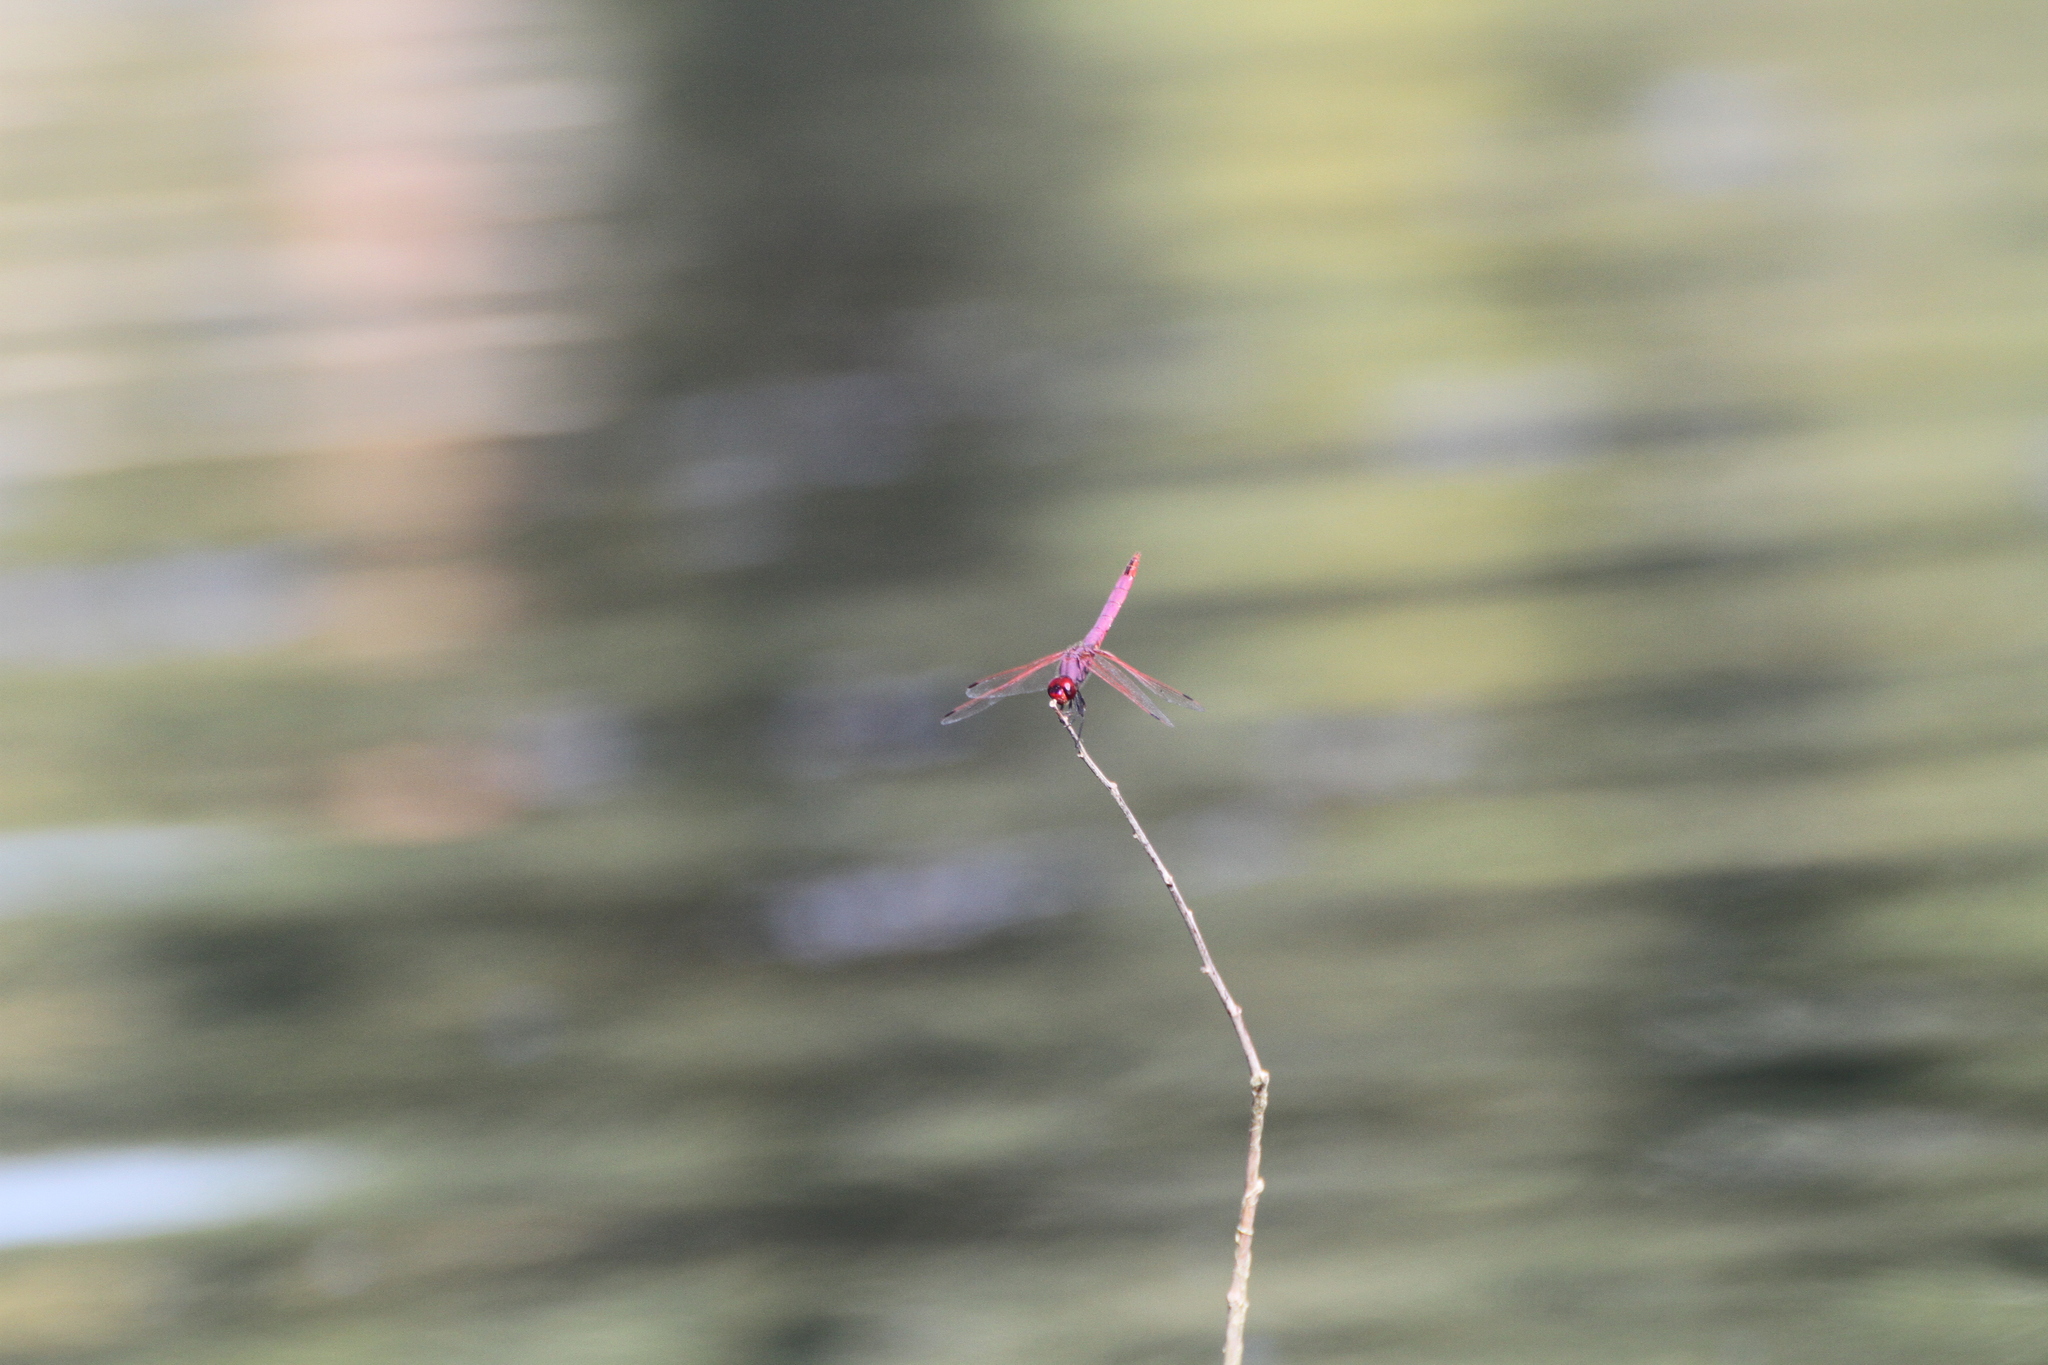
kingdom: Animalia
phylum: Arthropoda
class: Insecta
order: Odonata
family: Libellulidae
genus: Trithemis
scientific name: Trithemis annulata
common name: Violet dropwing
